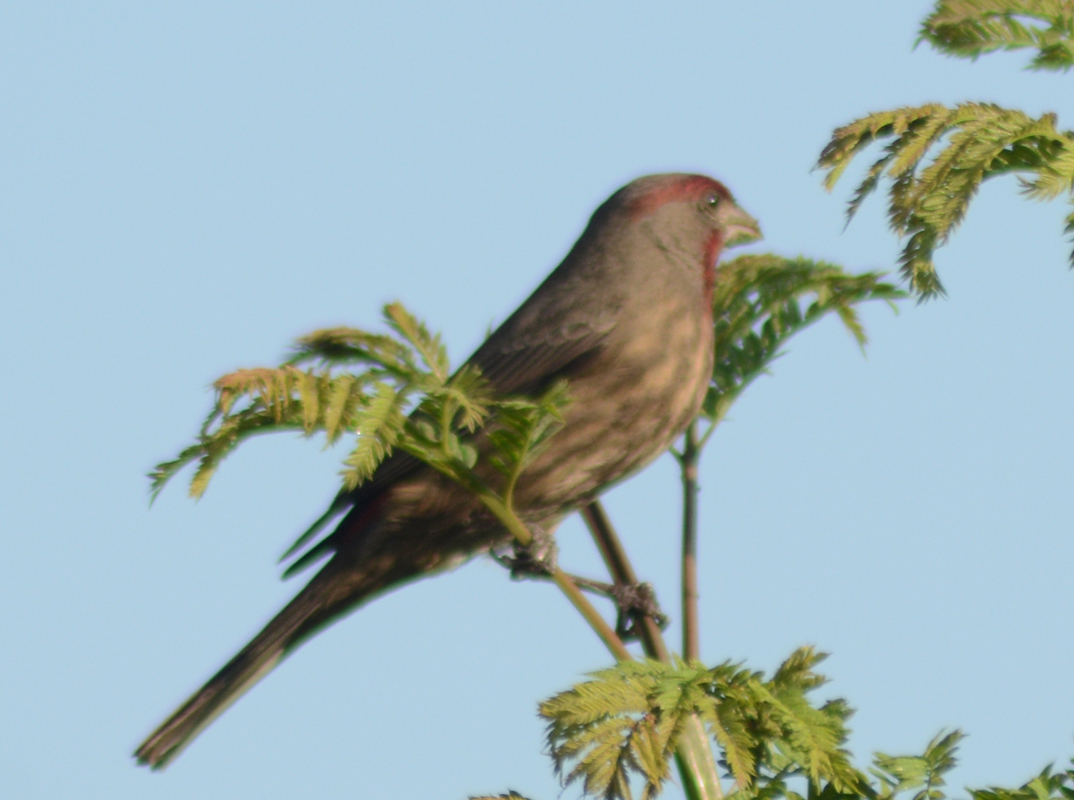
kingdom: Animalia
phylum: Chordata
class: Aves
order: Passeriformes
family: Fringillidae
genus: Haemorhous
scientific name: Haemorhous mexicanus
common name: House finch
